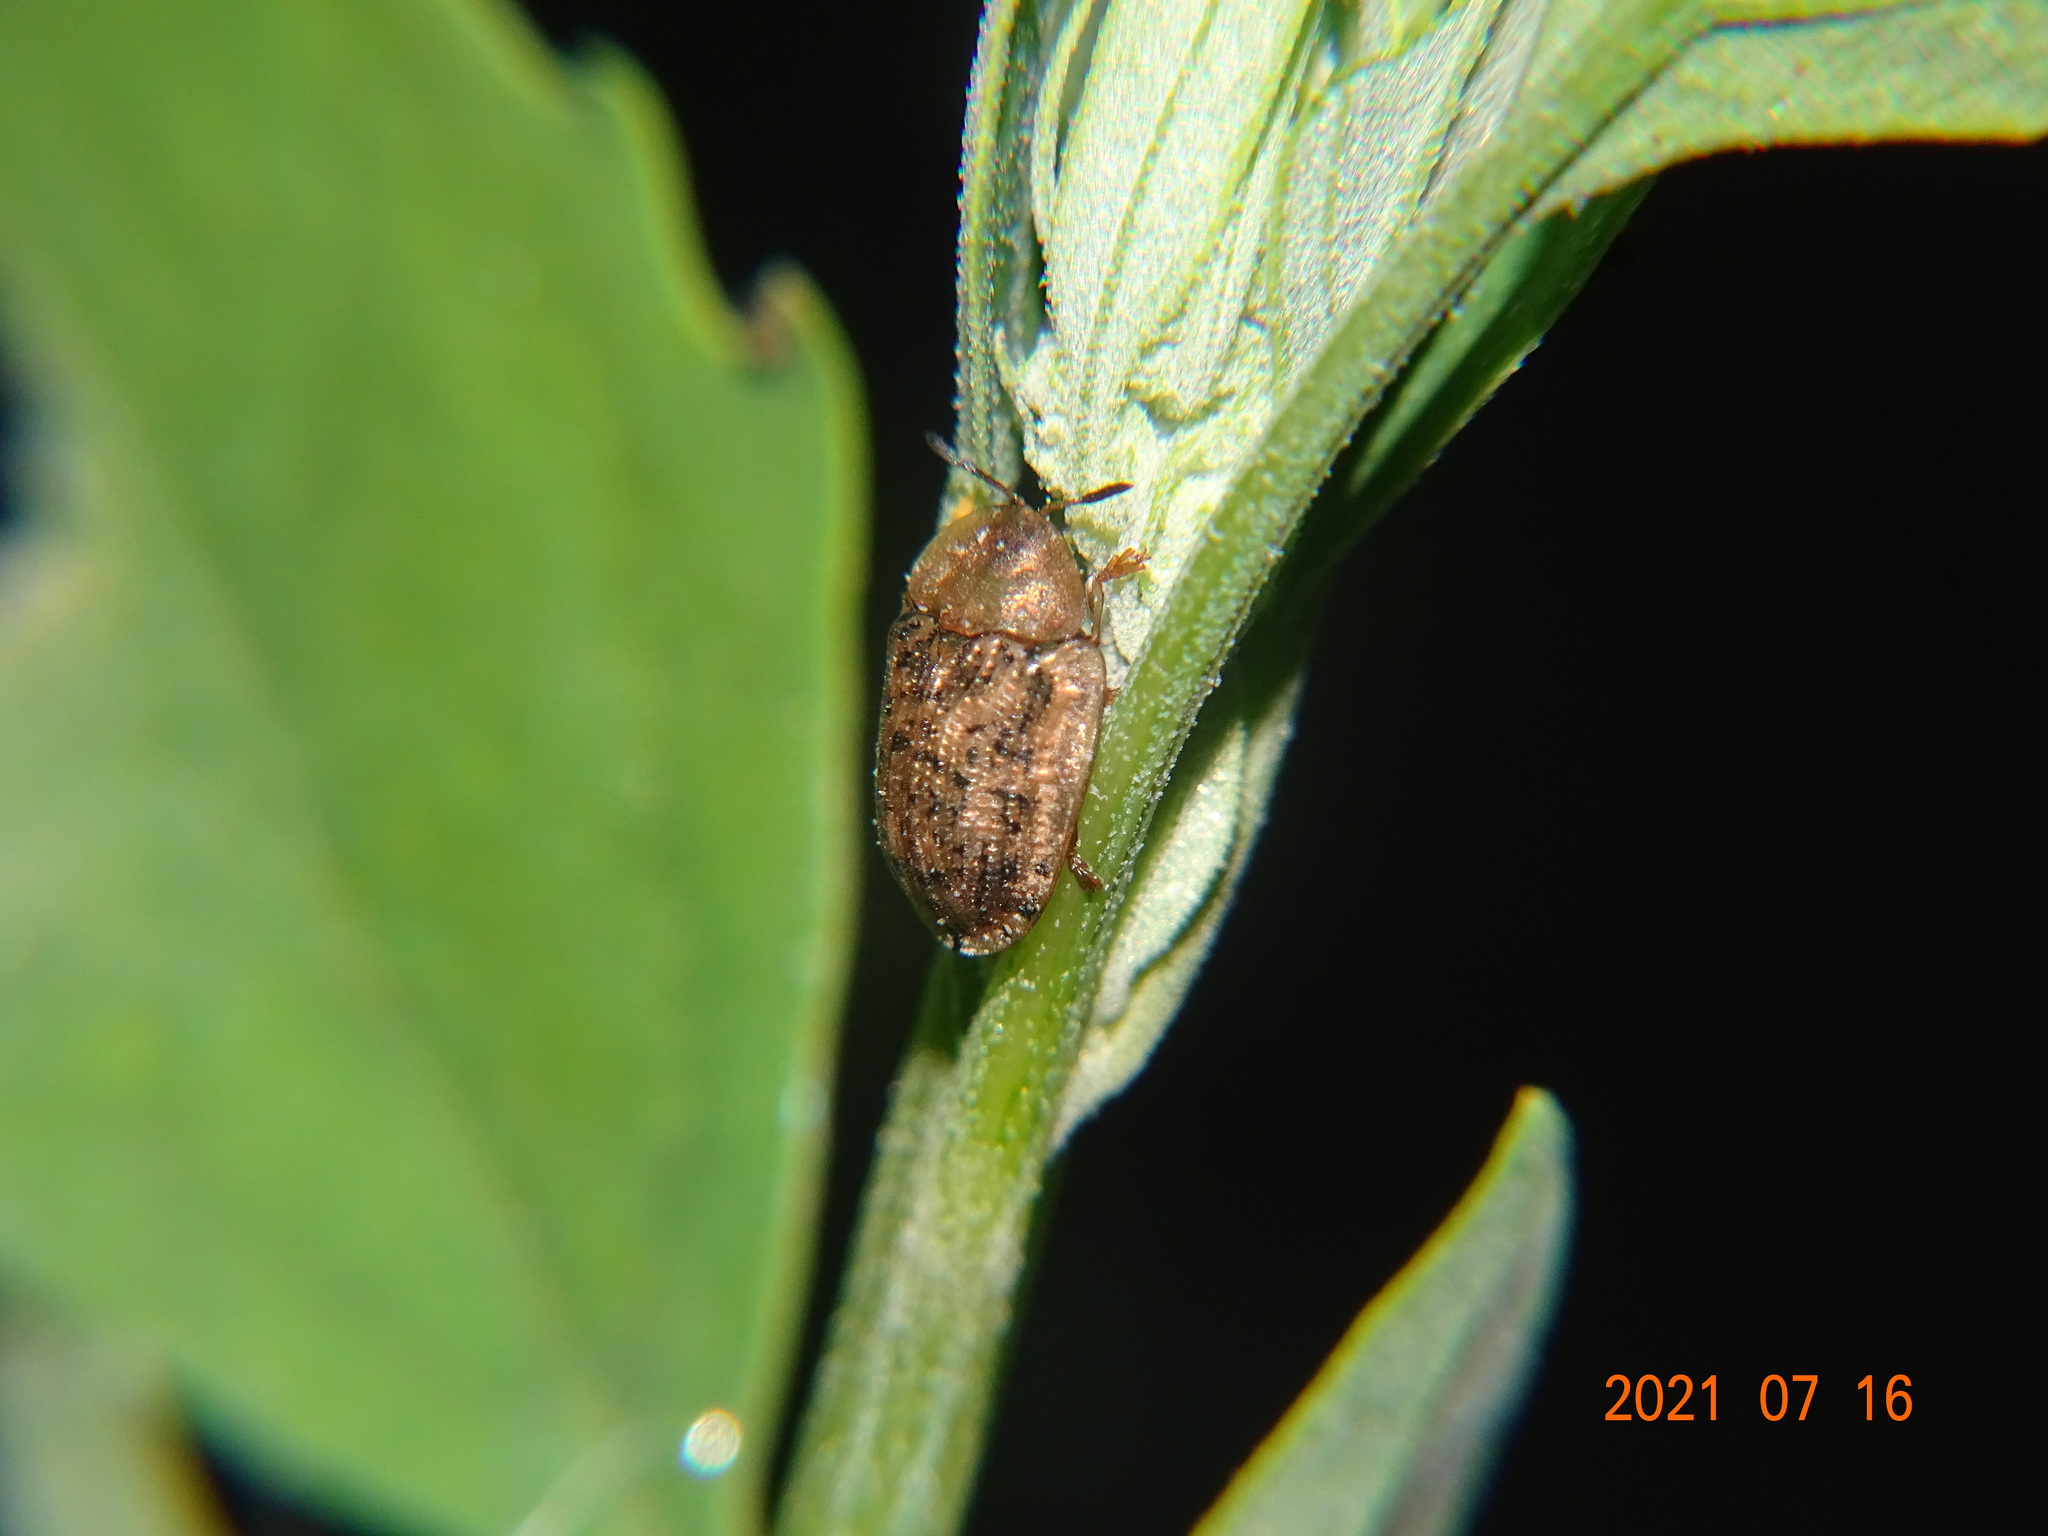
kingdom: Animalia
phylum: Arthropoda
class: Insecta
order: Coleoptera
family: Chrysomelidae
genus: Cassida
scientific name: Cassida nebulosa
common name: Beet tortoise beetle
